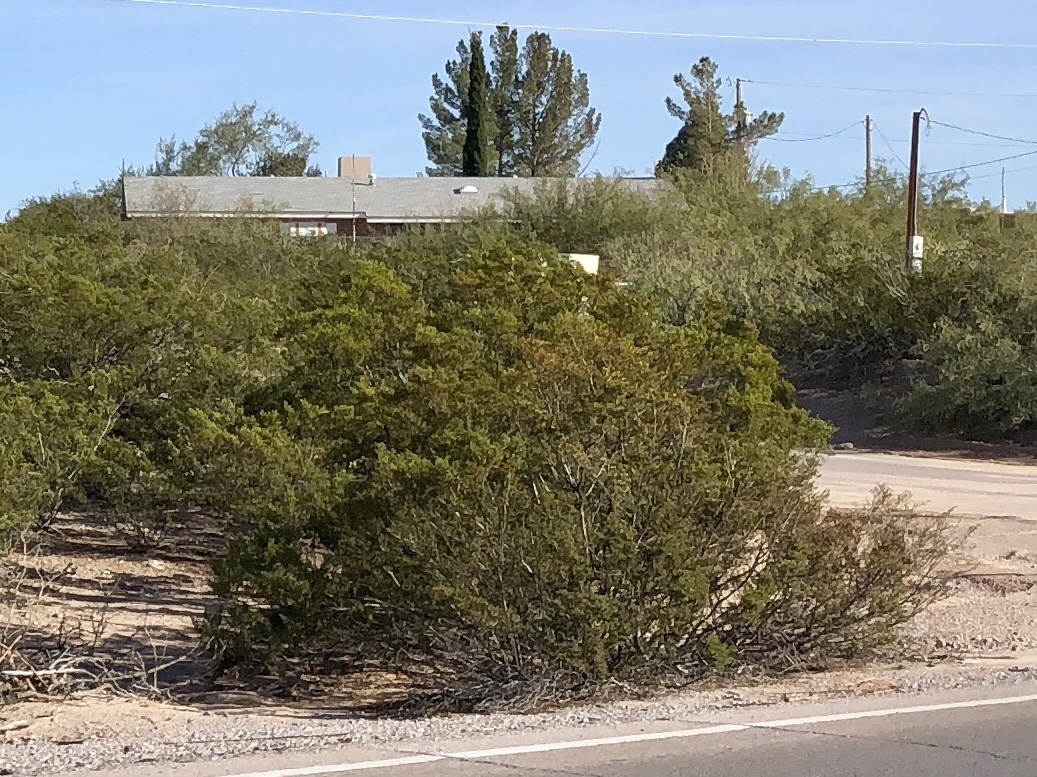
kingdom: Plantae
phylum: Tracheophyta
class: Magnoliopsida
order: Zygophyllales
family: Zygophyllaceae
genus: Larrea
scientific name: Larrea tridentata
